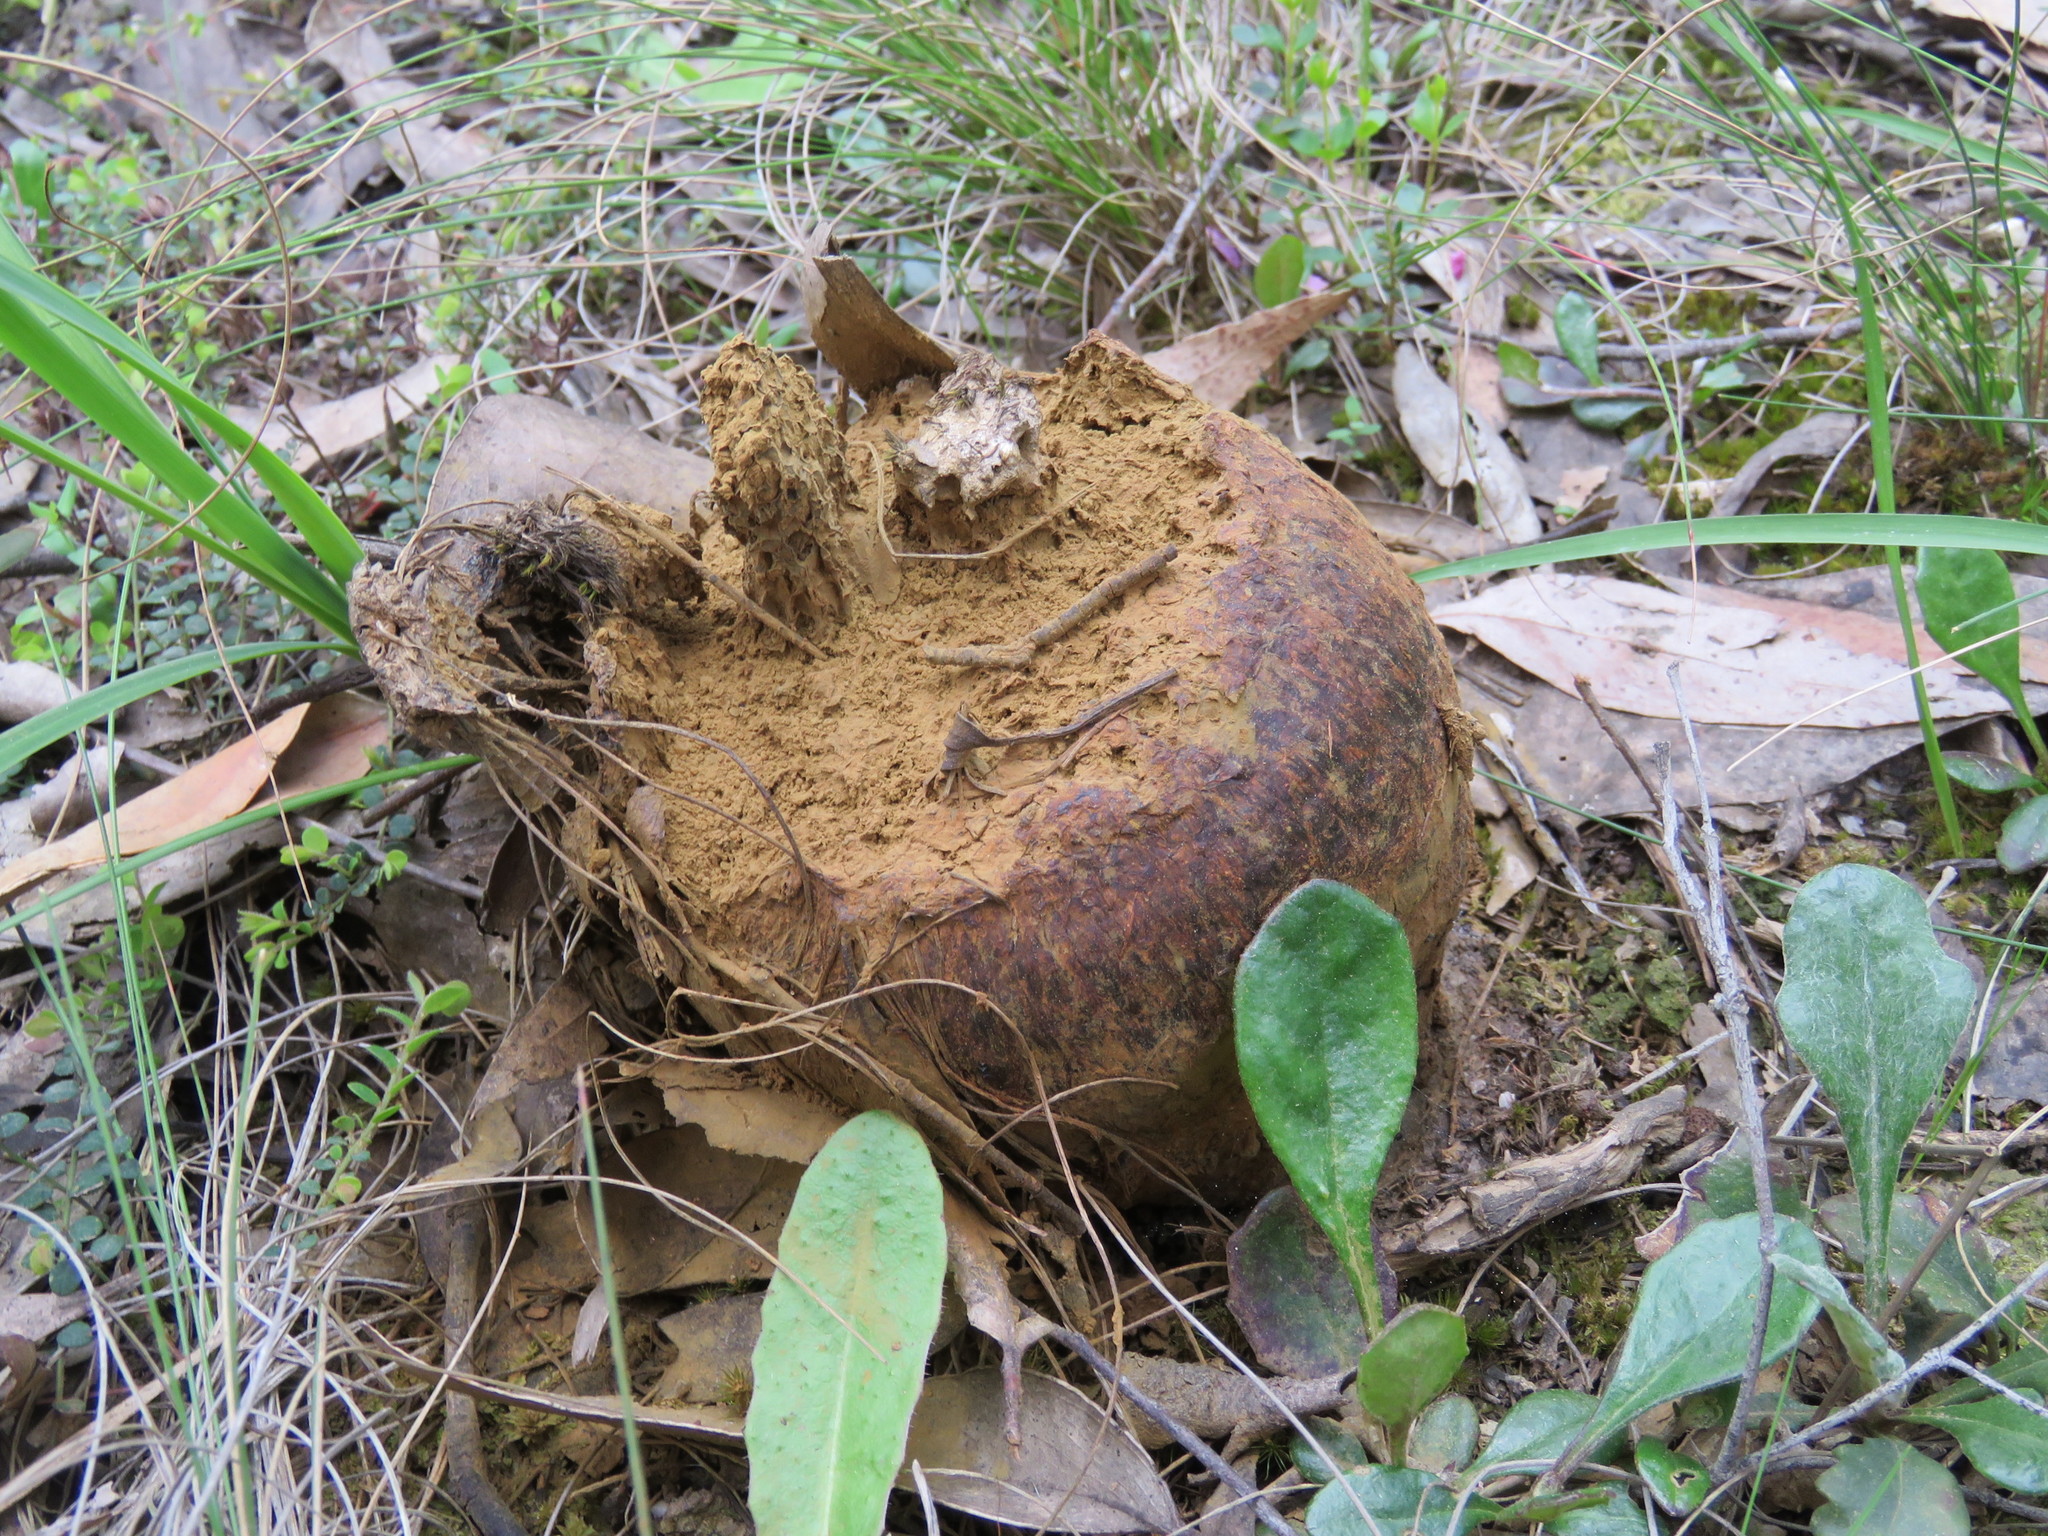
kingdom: Fungi
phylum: Basidiomycota
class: Agaricomycetes
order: Boletales
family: Sclerodermataceae
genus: Pisolithus
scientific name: Pisolithus arhizus
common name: Dyeball
